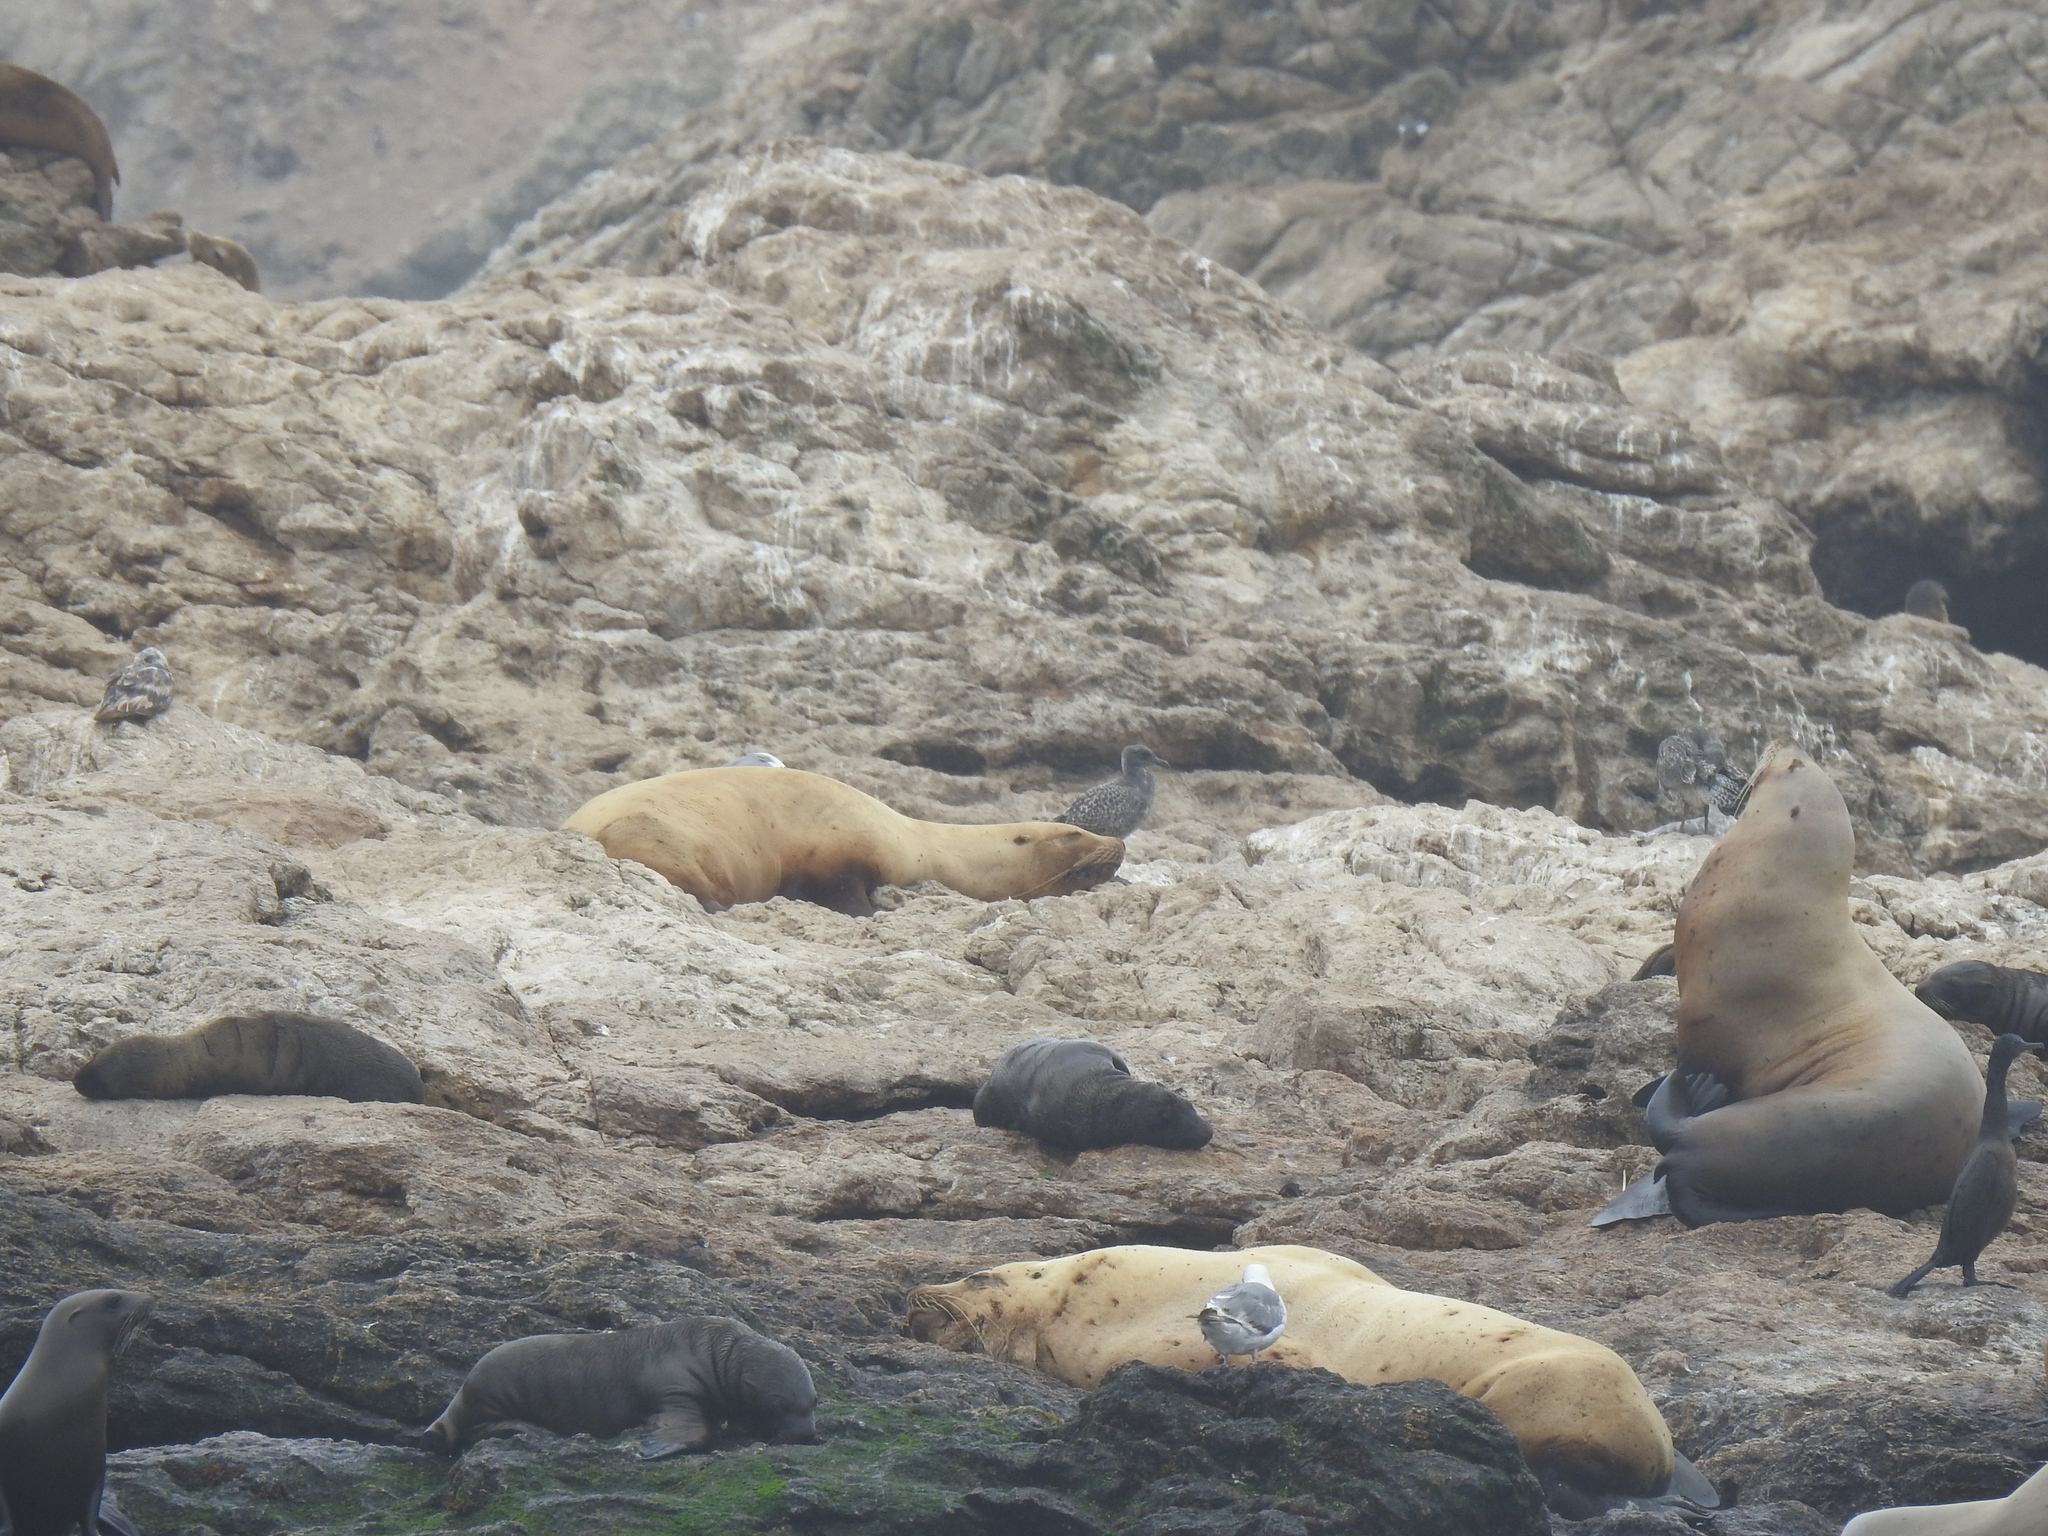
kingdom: Animalia
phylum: Chordata
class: Mammalia
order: Carnivora
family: Otariidae
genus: Zalophus
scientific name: Zalophus californianus
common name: California sea lion
